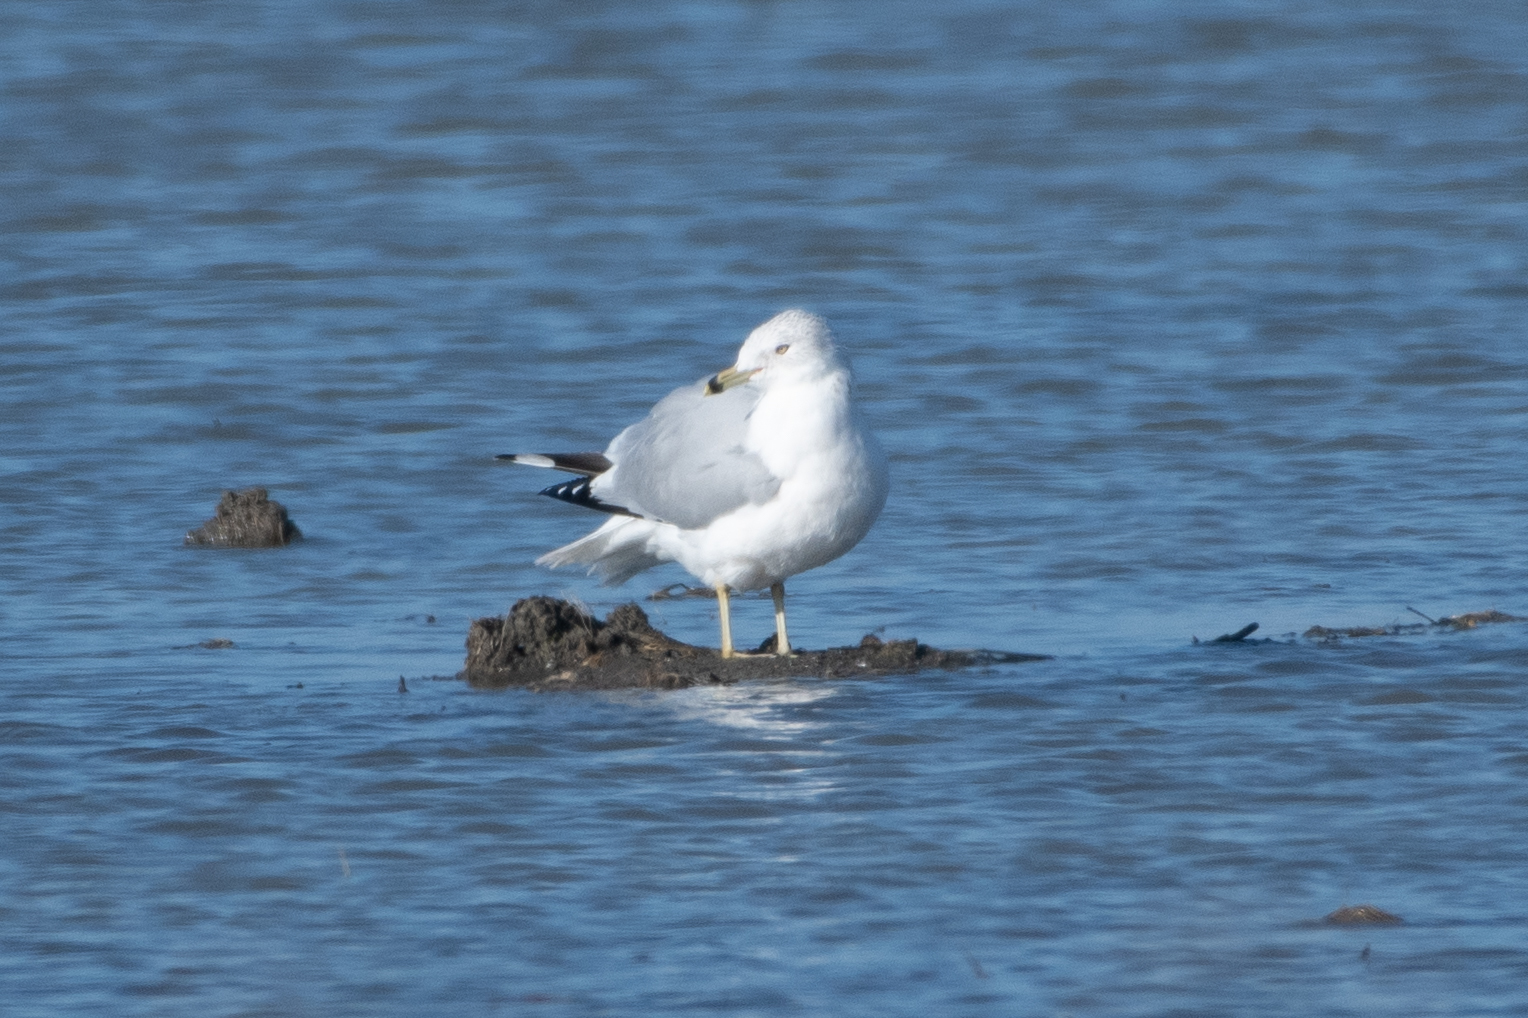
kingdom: Animalia
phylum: Chordata
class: Aves
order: Charadriiformes
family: Laridae
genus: Larus
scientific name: Larus delawarensis
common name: Ring-billed gull
